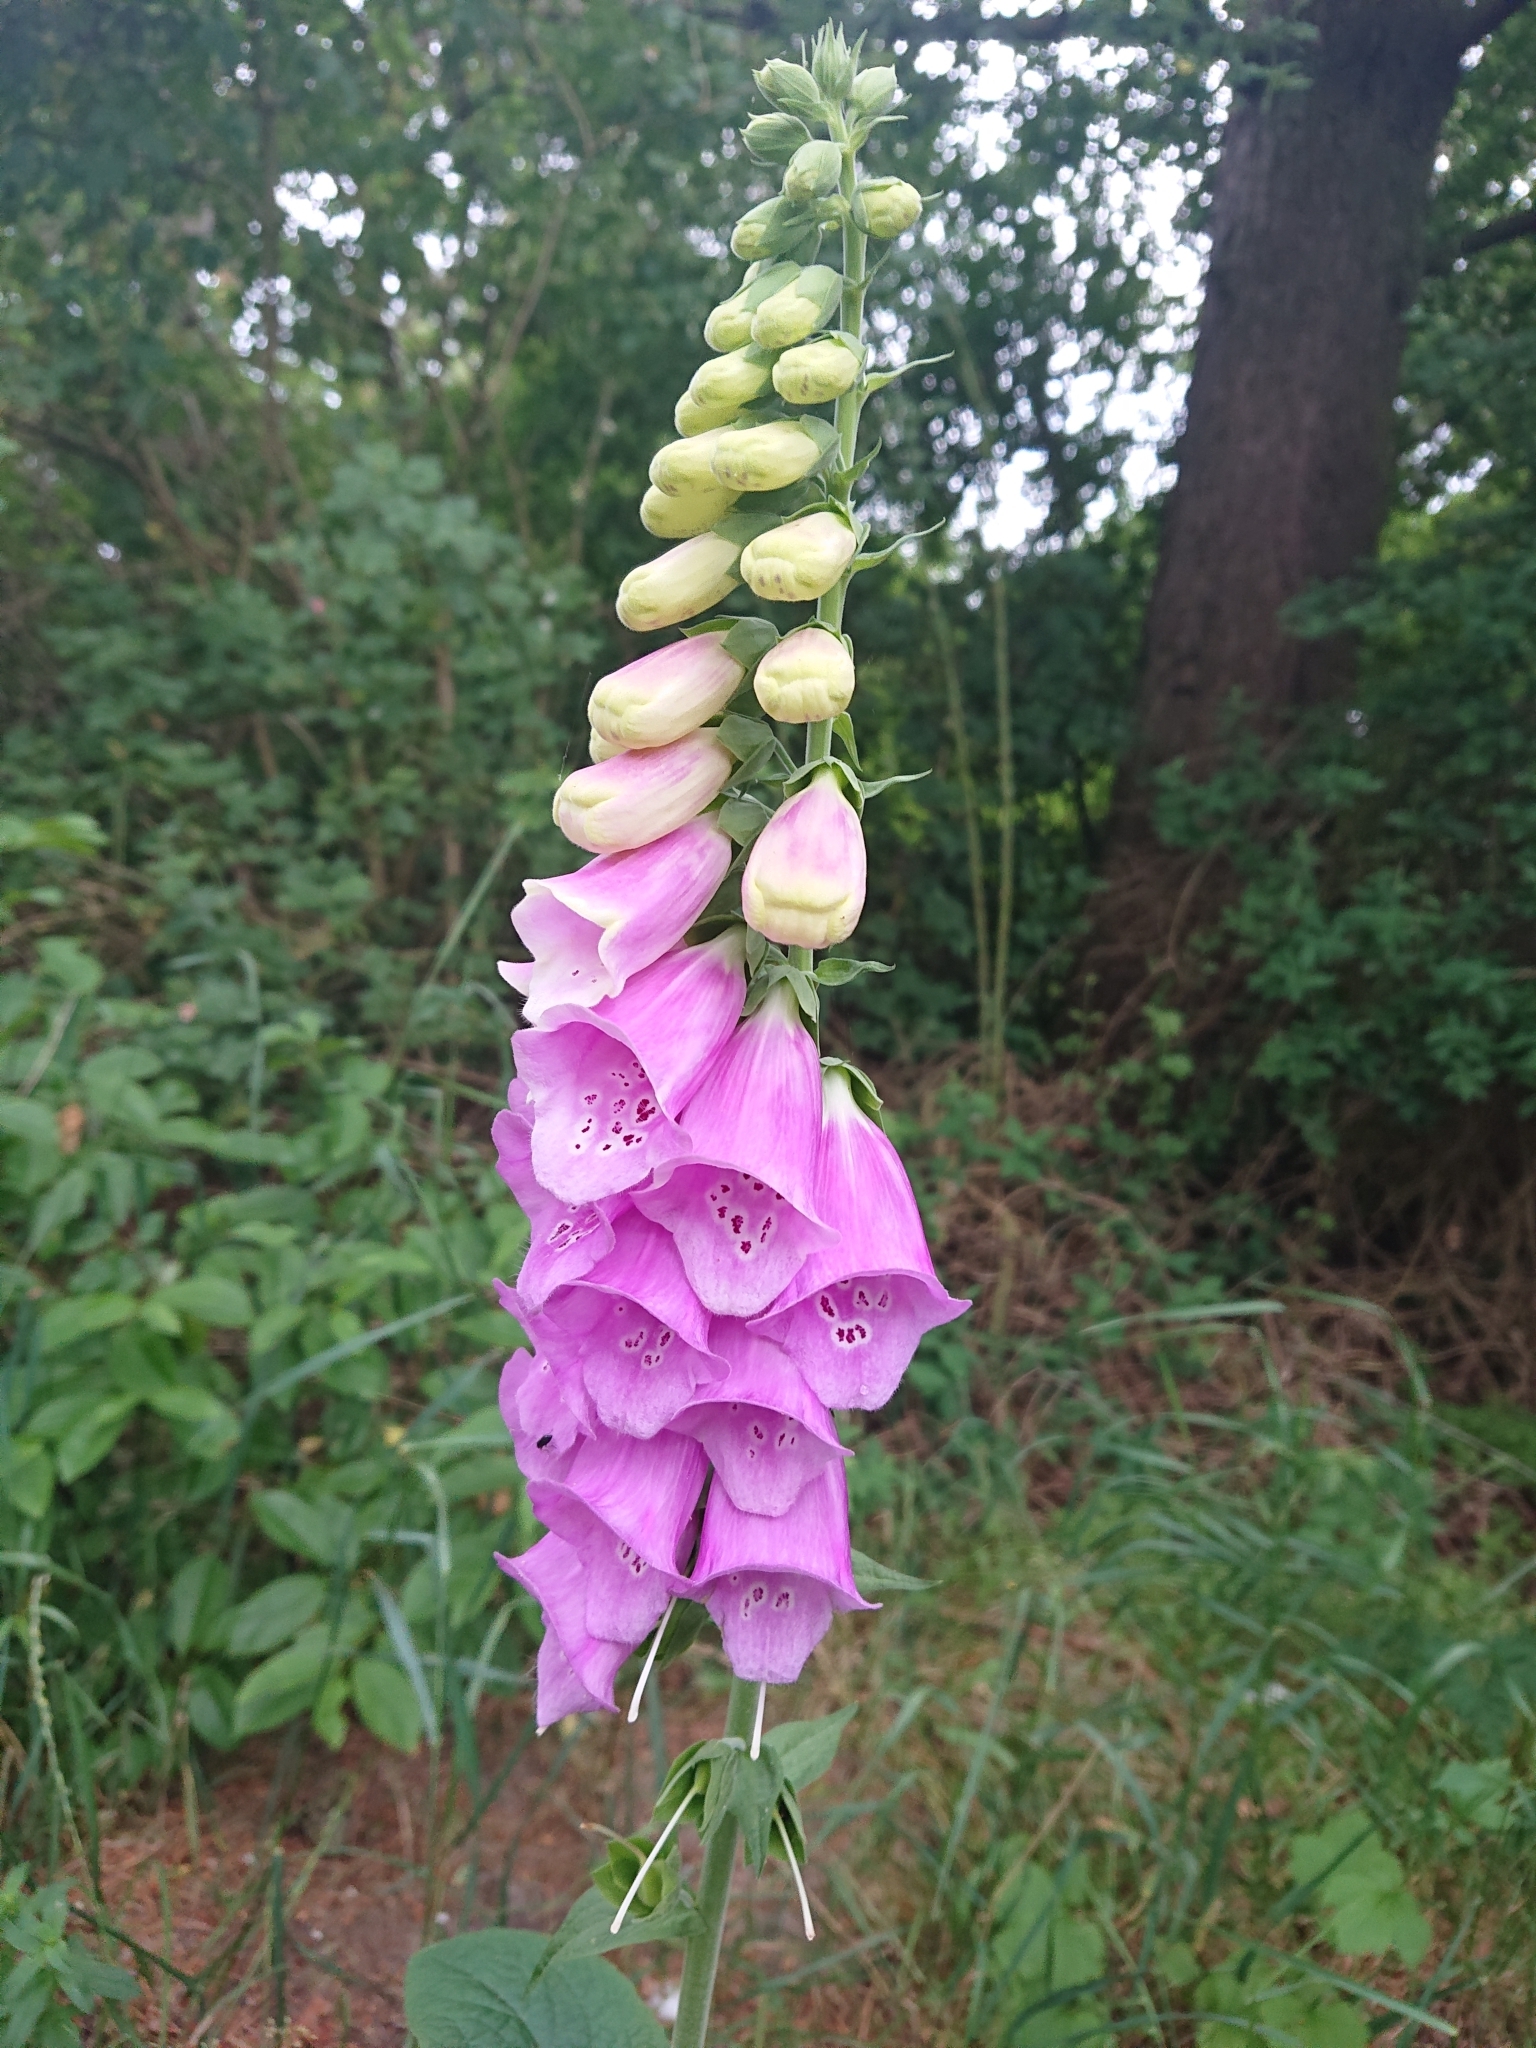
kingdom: Plantae
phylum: Tracheophyta
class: Magnoliopsida
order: Lamiales
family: Plantaginaceae
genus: Digitalis
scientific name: Digitalis purpurea
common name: Foxglove
